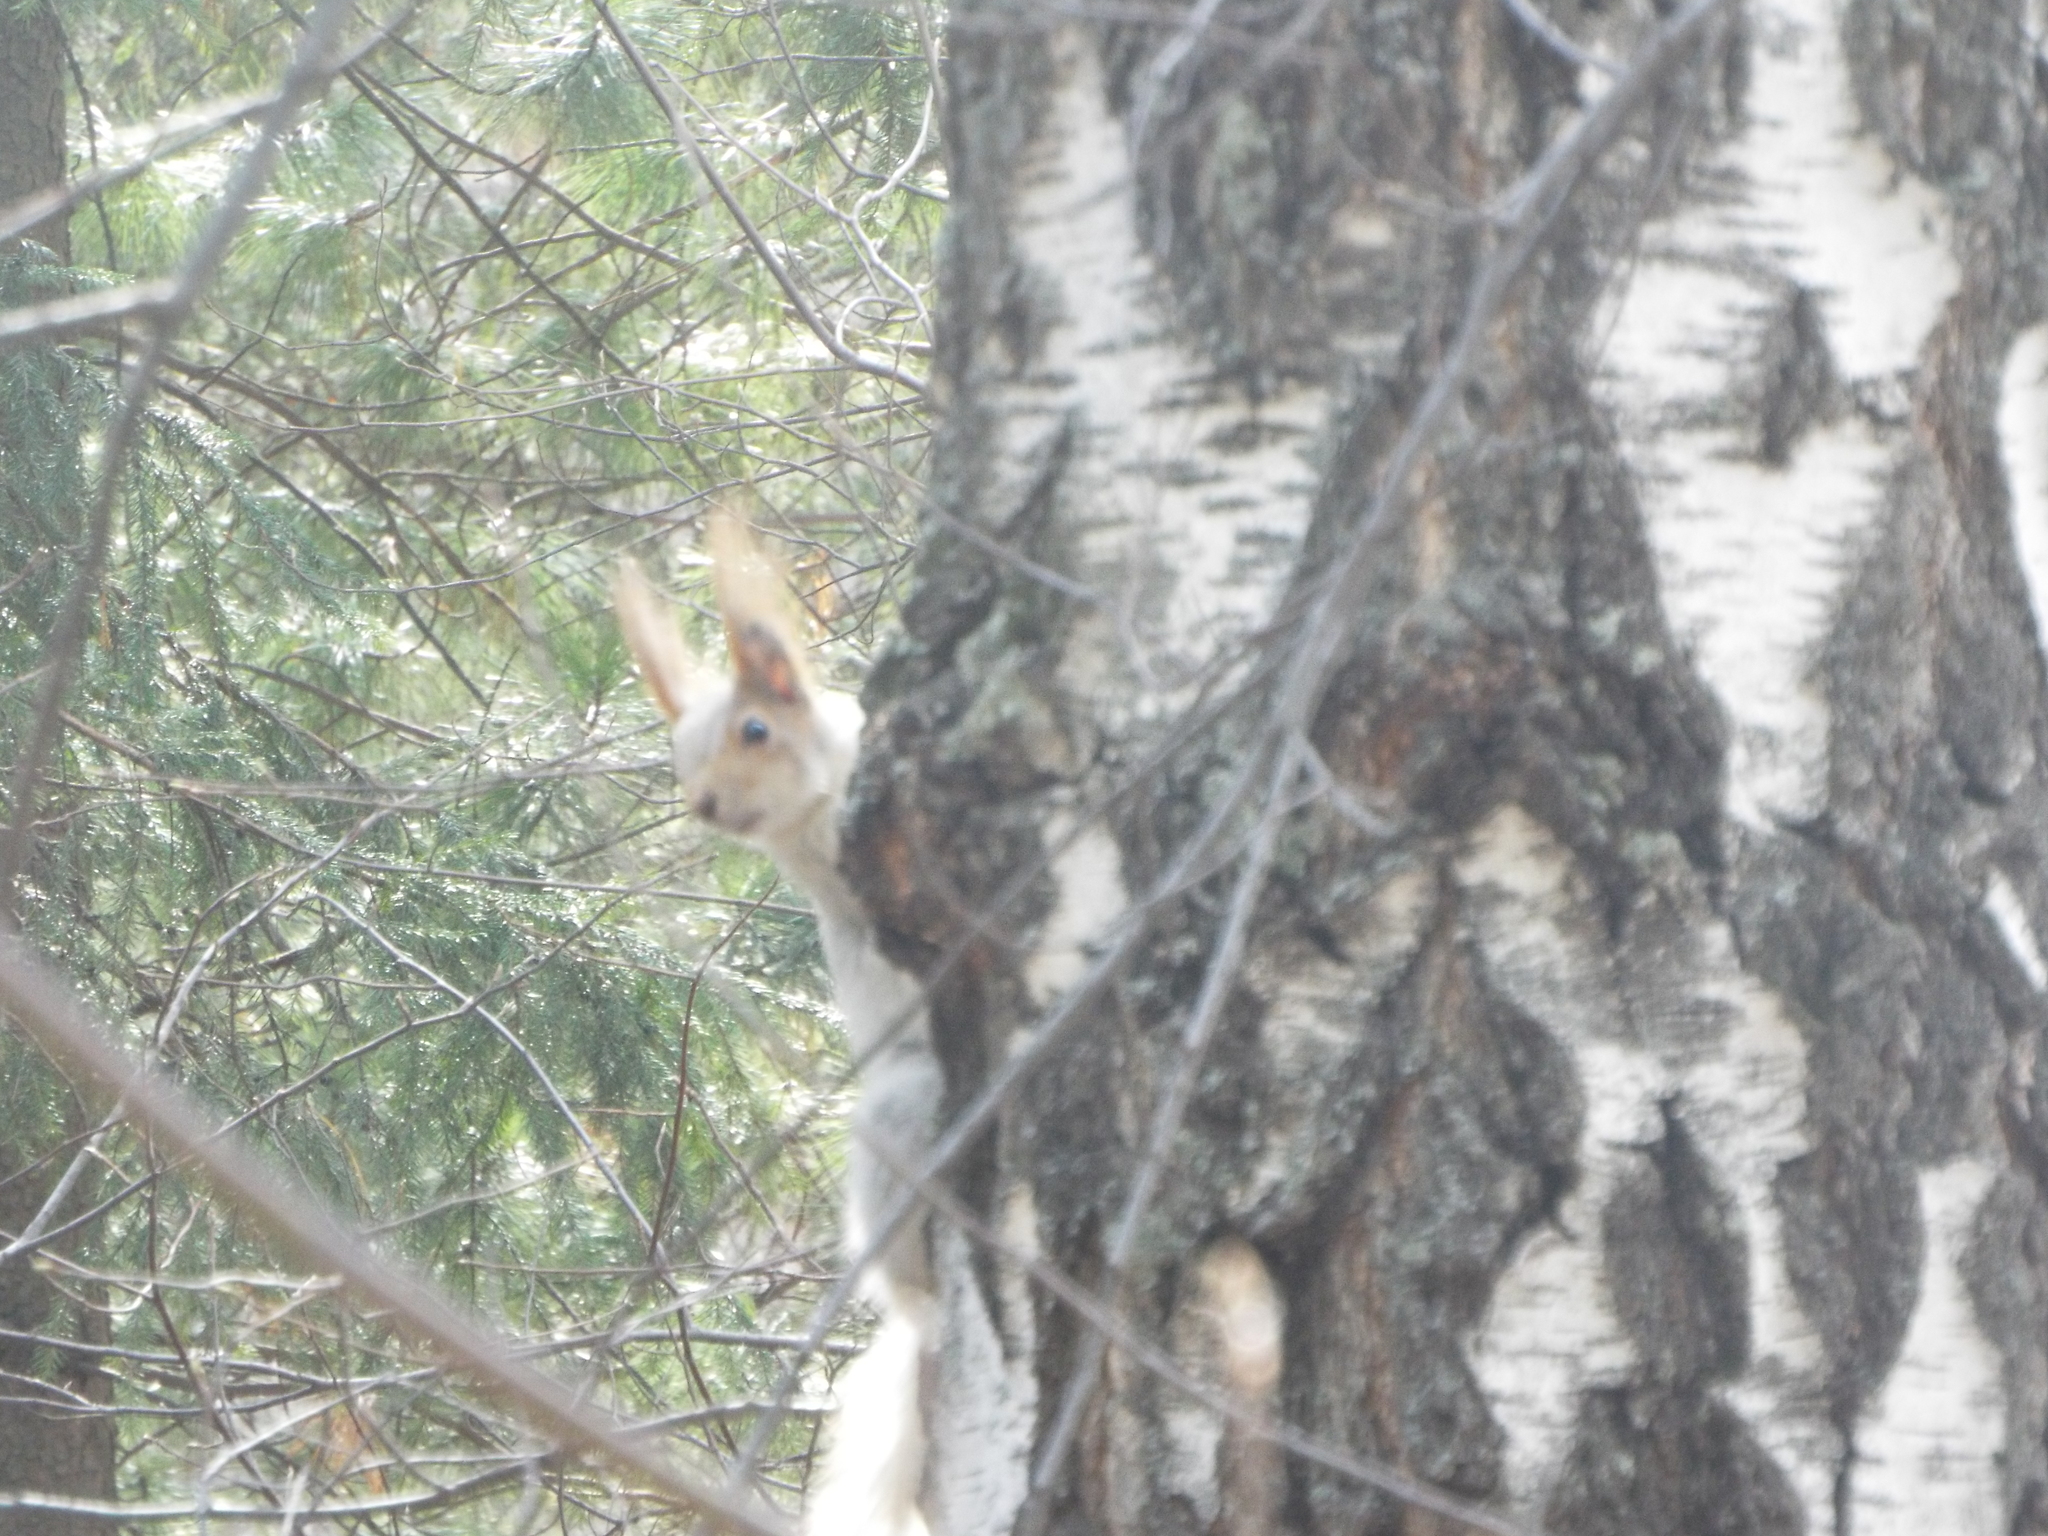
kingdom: Animalia
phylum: Chordata
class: Mammalia
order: Rodentia
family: Sciuridae
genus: Sciurus
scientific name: Sciurus vulgaris
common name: Eurasian red squirrel
